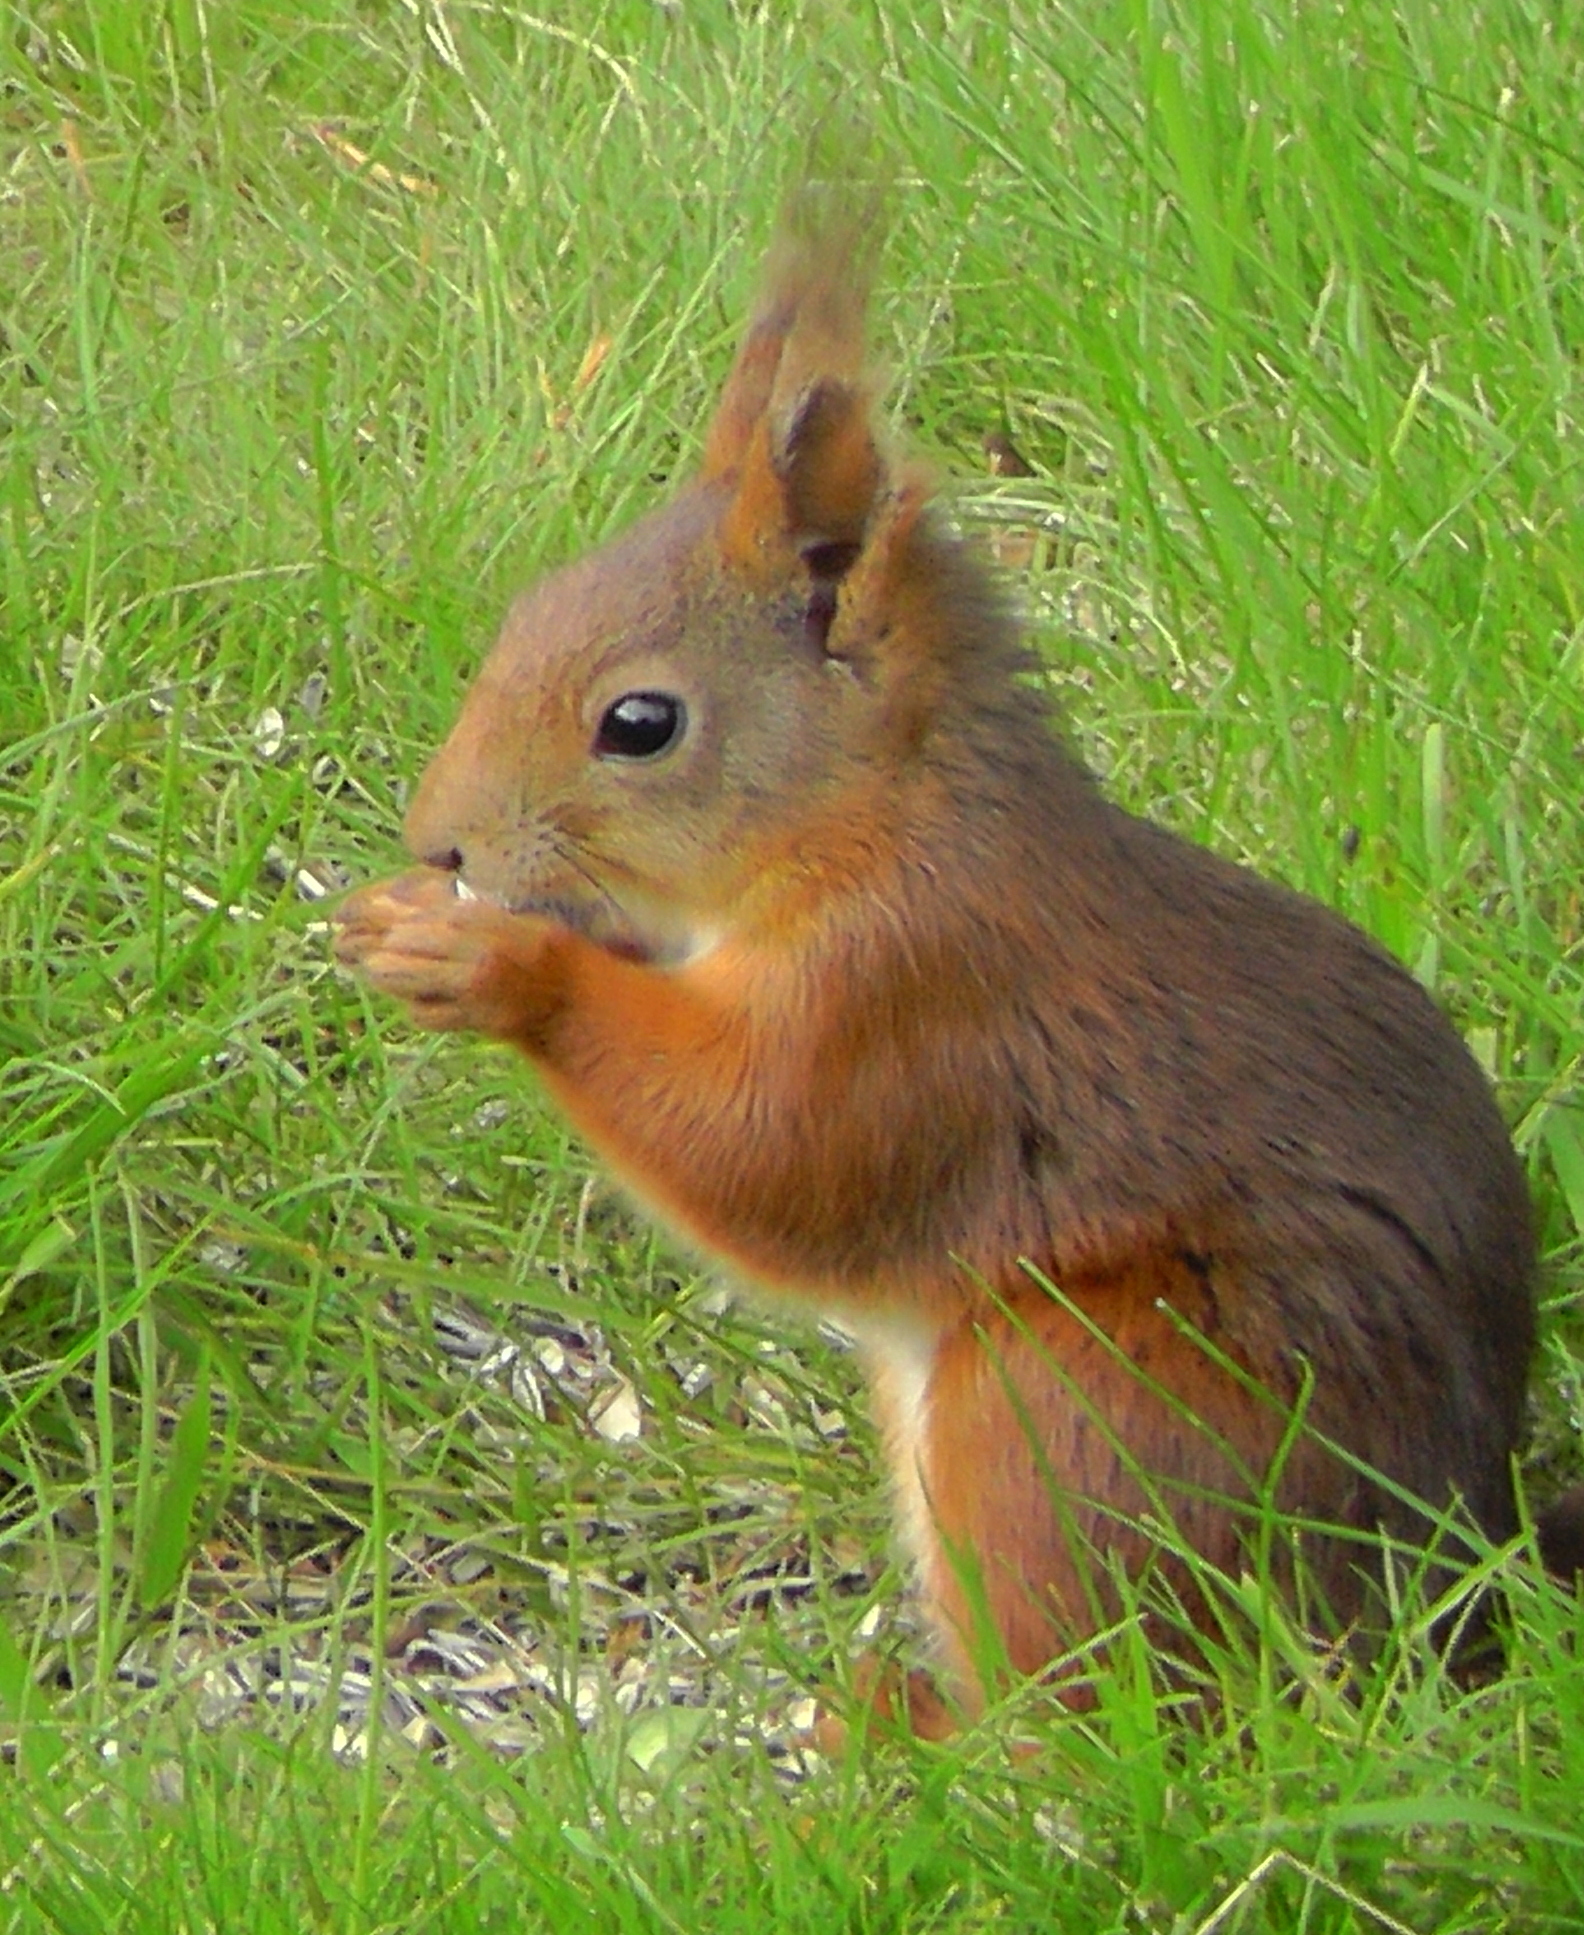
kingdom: Animalia
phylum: Chordata
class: Mammalia
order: Rodentia
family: Sciuridae
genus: Sciurus
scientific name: Sciurus vulgaris
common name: Eurasian red squirrel
